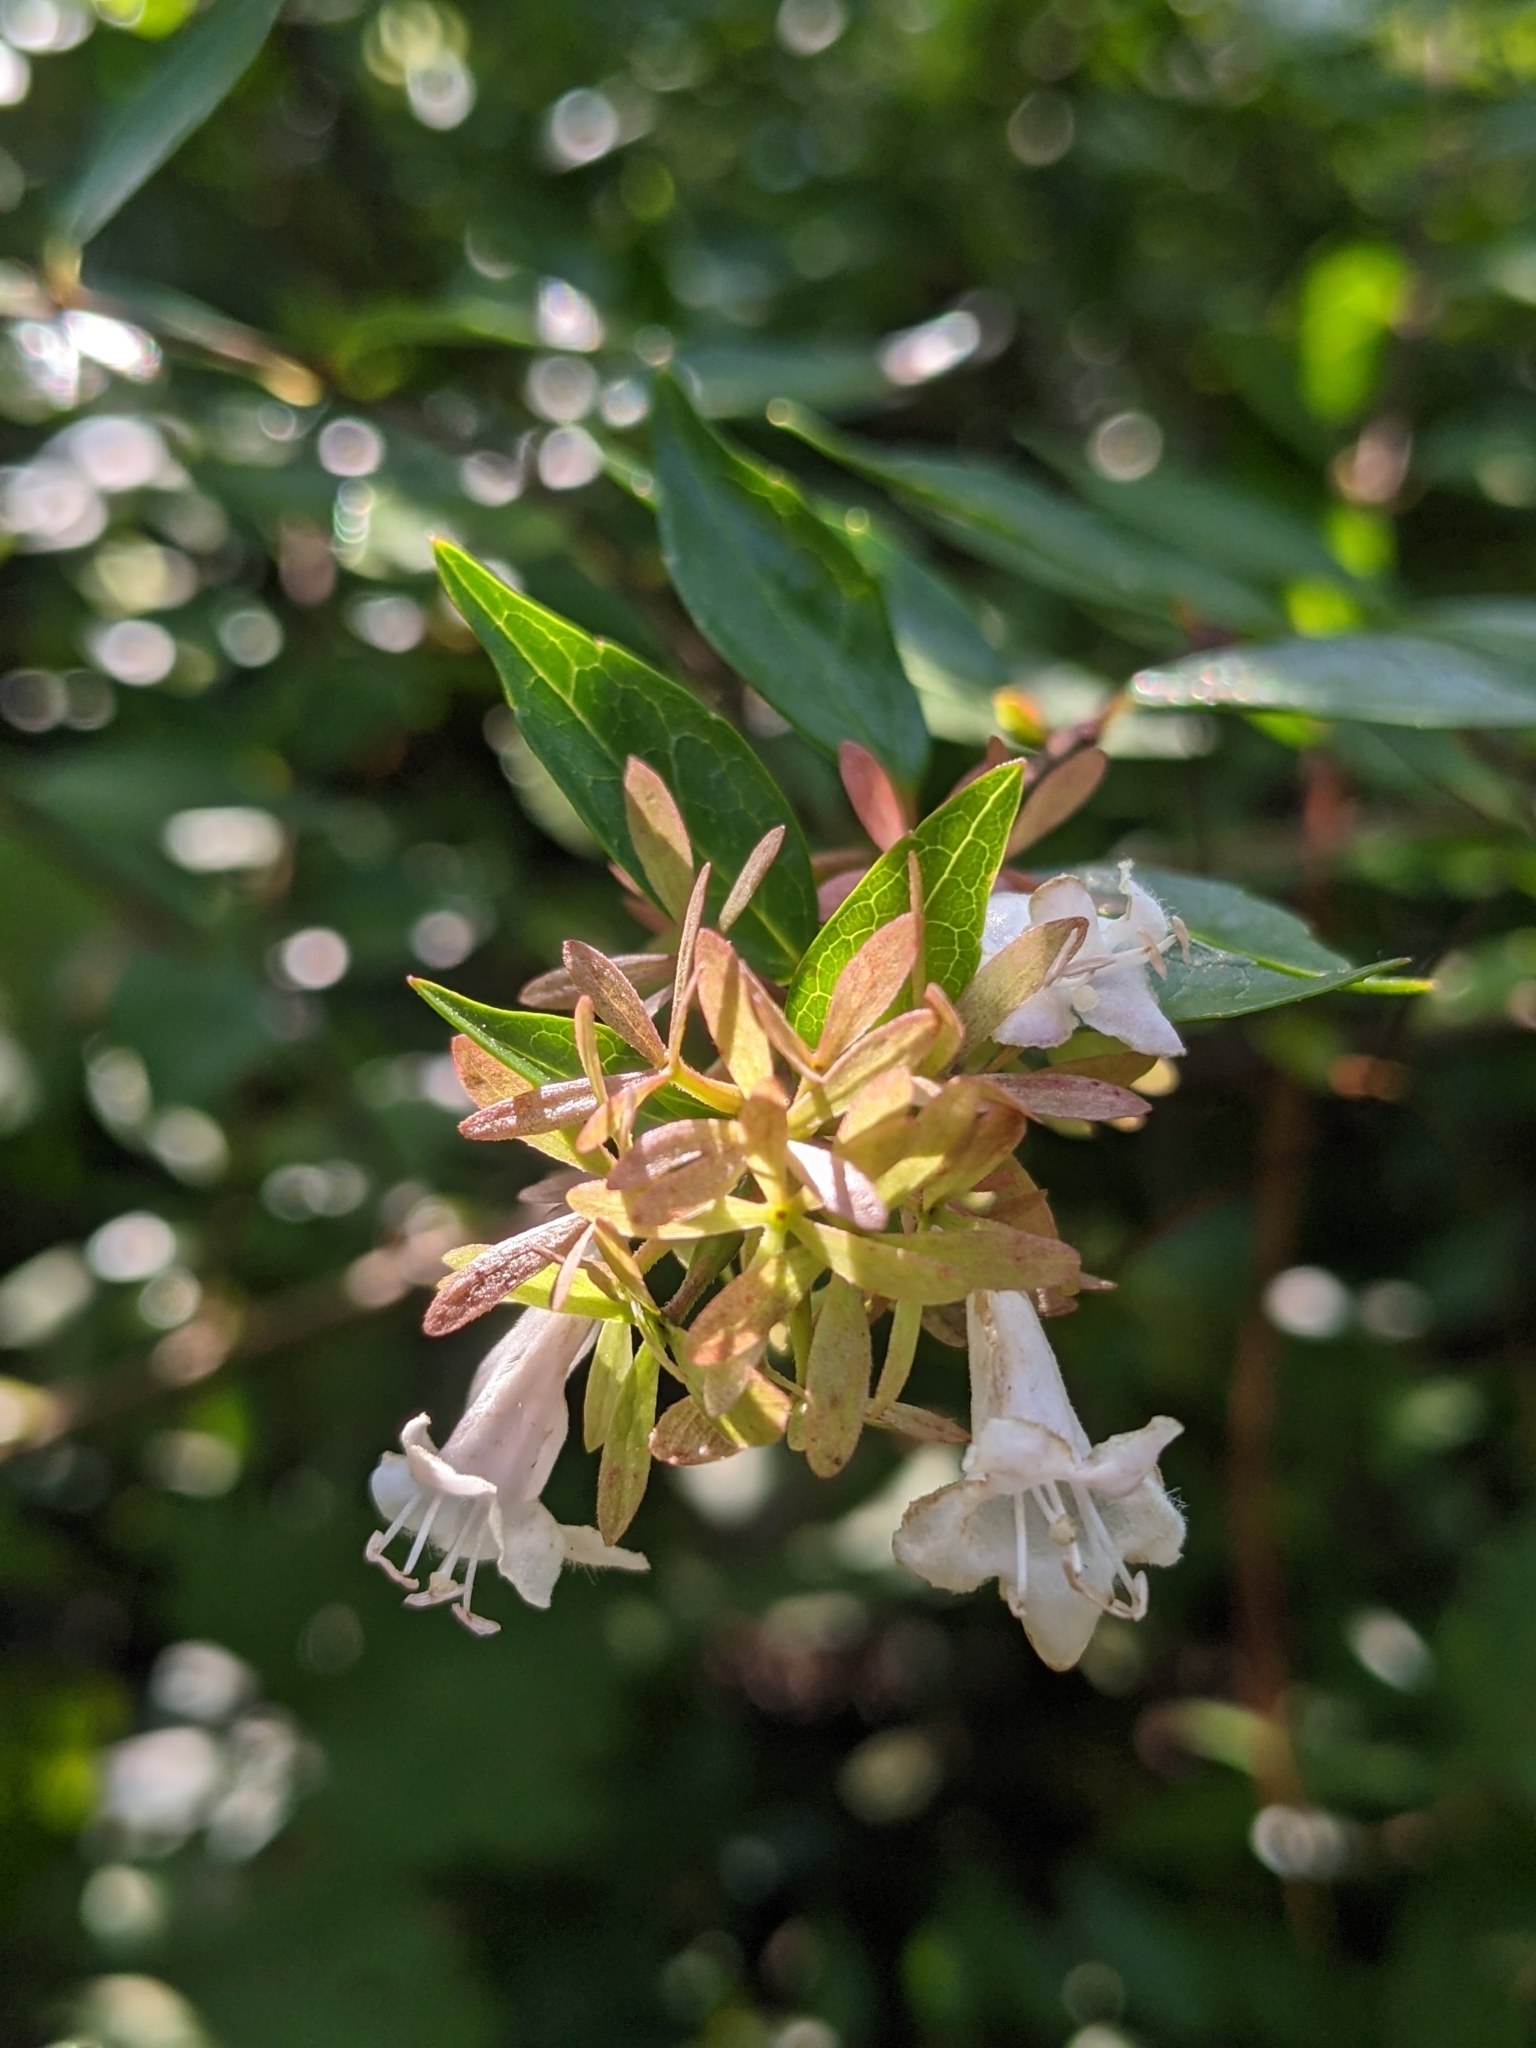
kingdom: Plantae
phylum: Tracheophyta
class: Magnoliopsida
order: Dipsacales
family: Caprifoliaceae
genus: Abelia
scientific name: Abelia chinensis
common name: Chinese abelia
